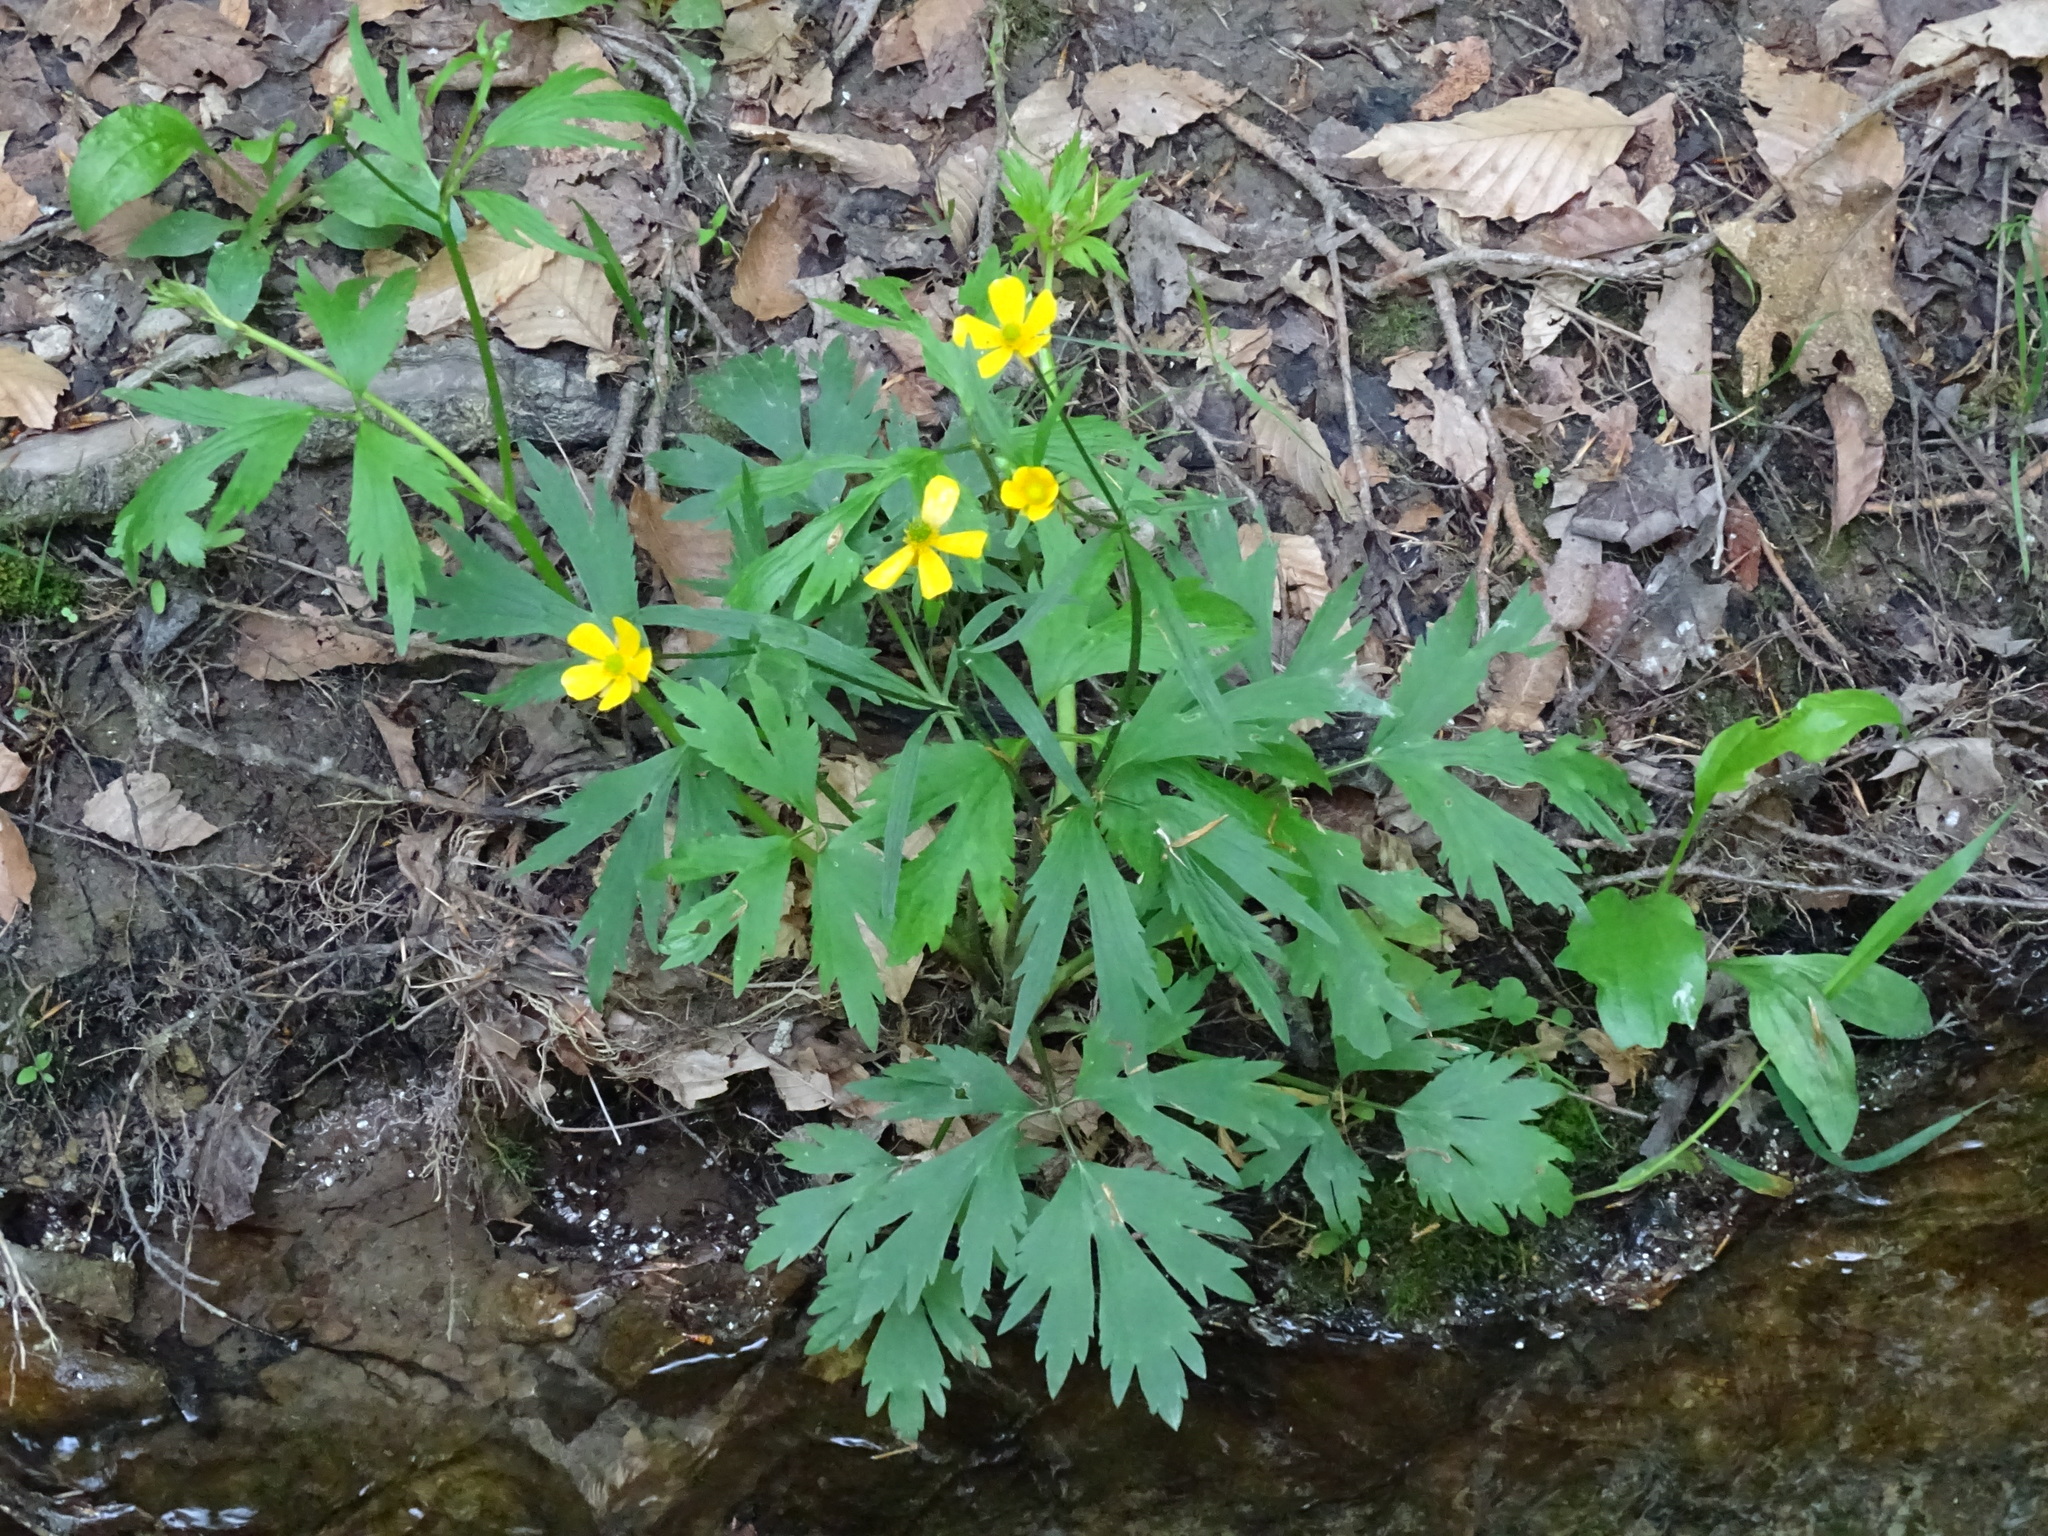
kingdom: Plantae
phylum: Tracheophyta
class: Magnoliopsida
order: Ranunculales
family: Ranunculaceae
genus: Ranunculus
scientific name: Ranunculus hispidus
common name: Bristly buttercup
